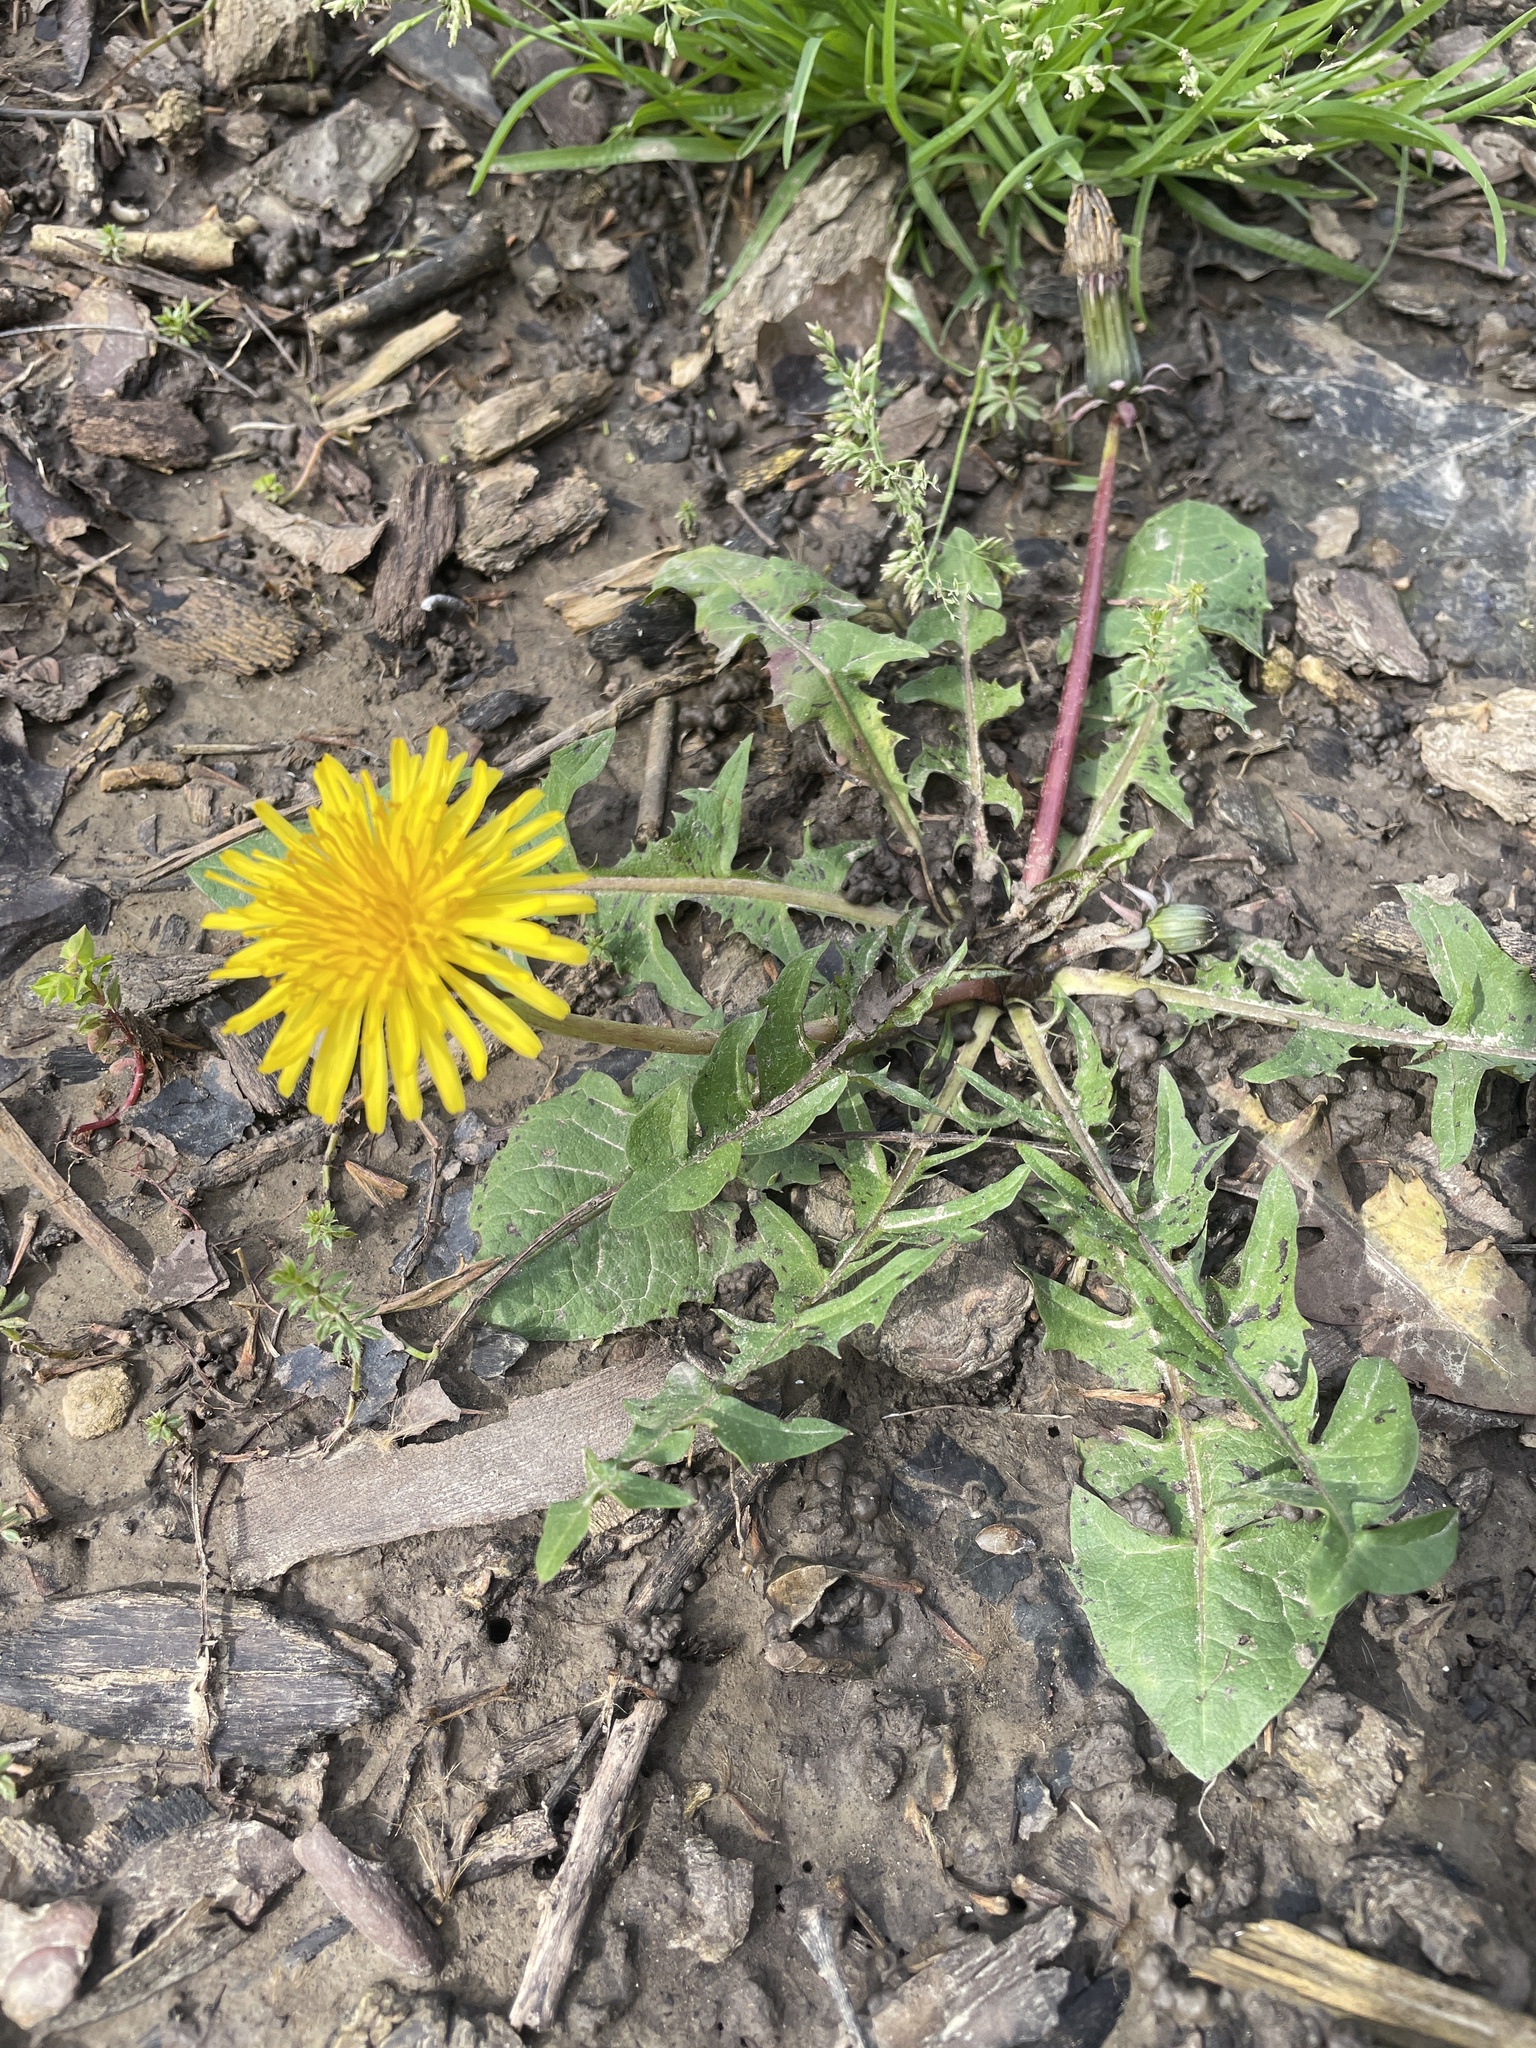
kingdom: Plantae
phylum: Tracheophyta
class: Magnoliopsida
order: Asterales
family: Asteraceae
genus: Taraxacum
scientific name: Taraxacum officinale
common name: Common dandelion
